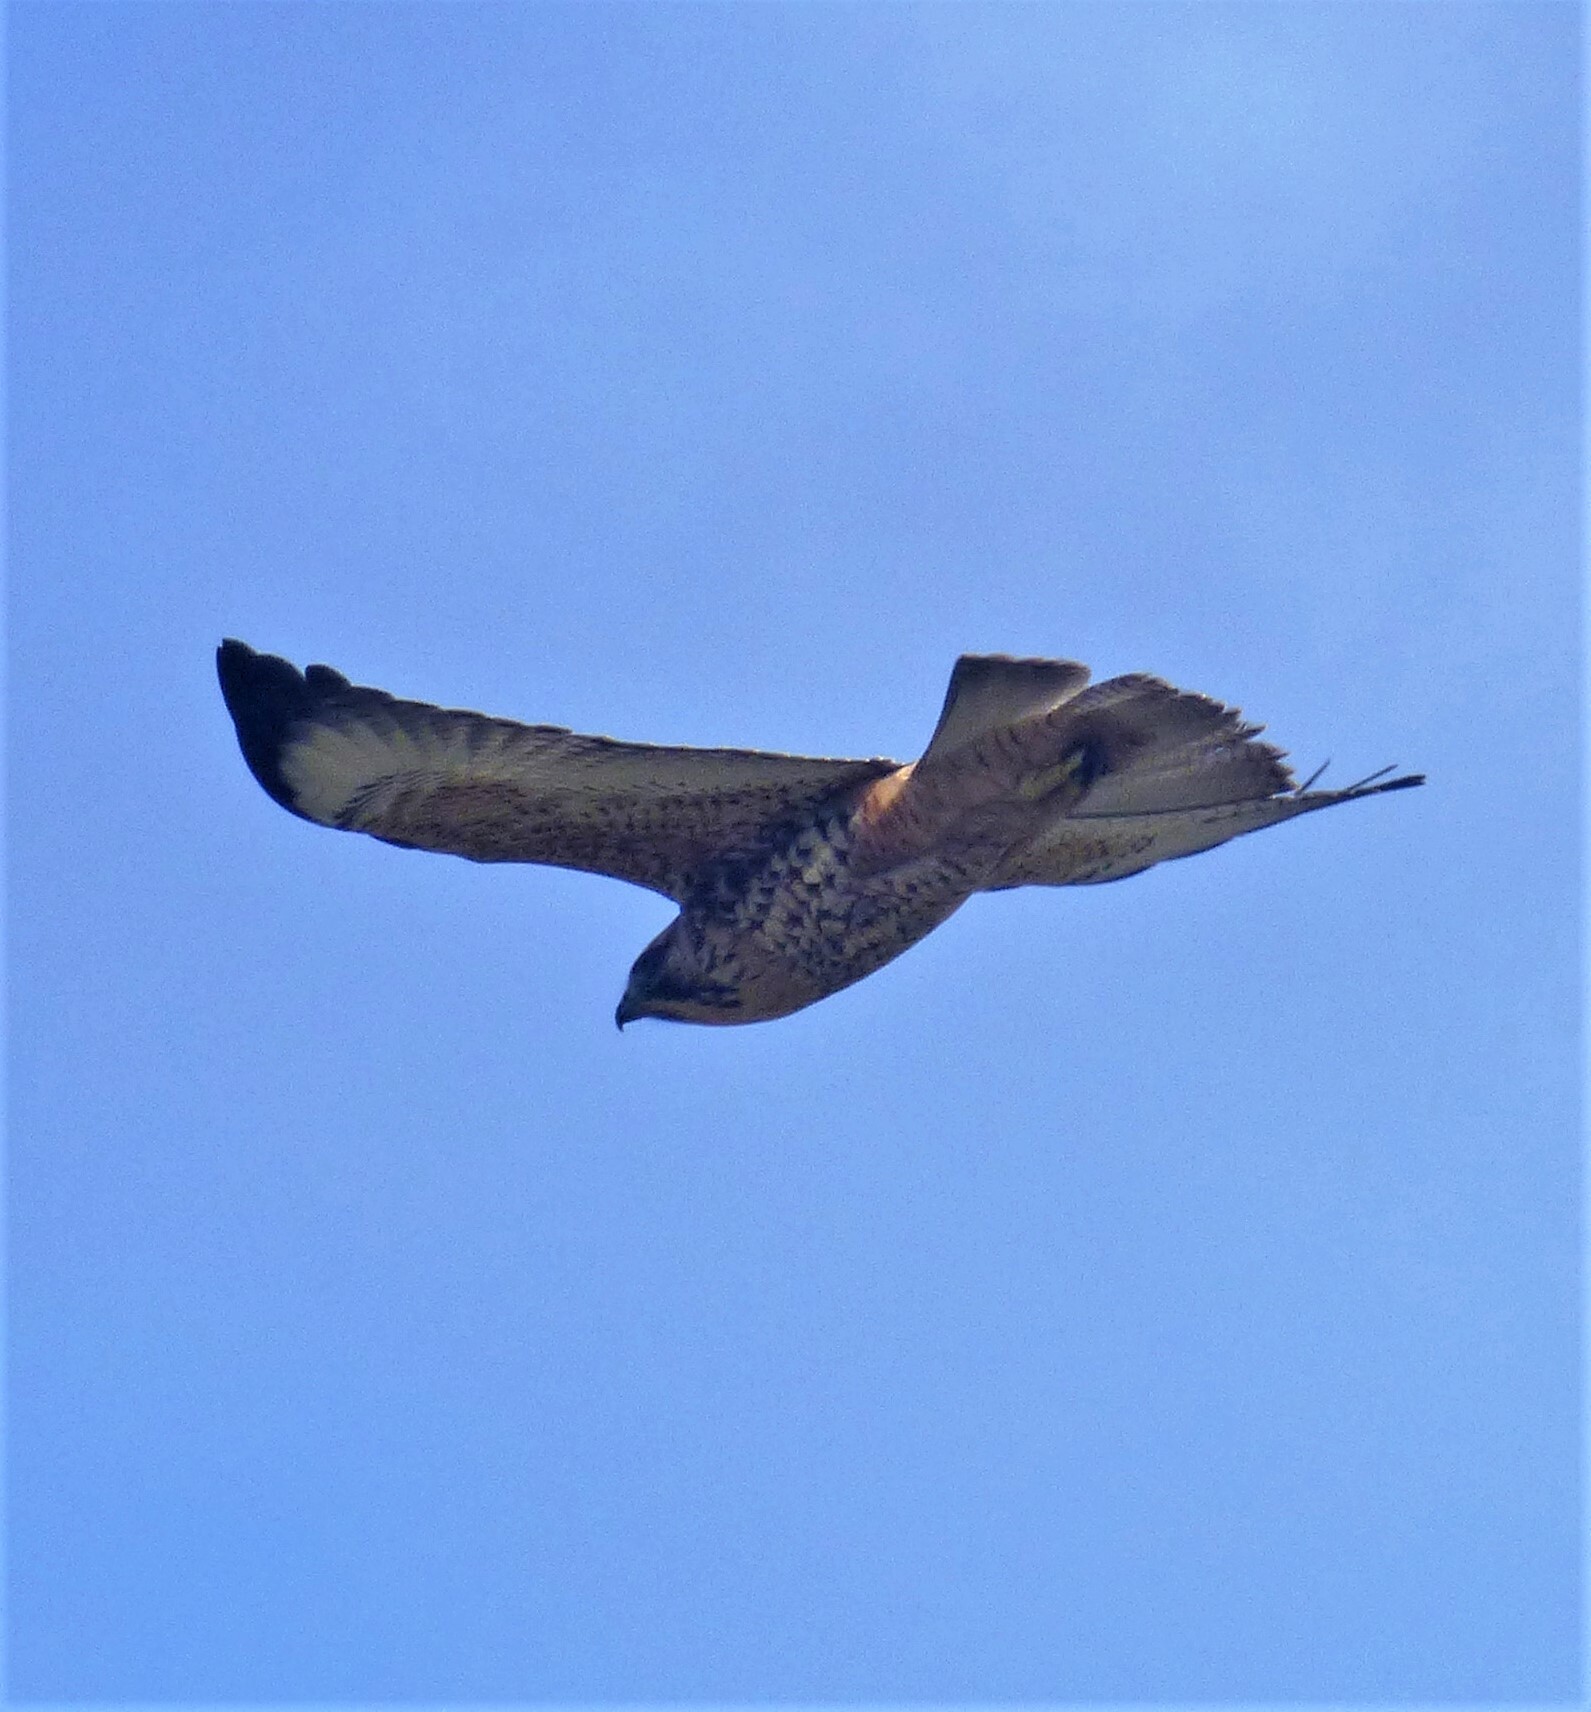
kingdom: Animalia
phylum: Chordata
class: Aves
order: Accipitriformes
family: Accipitridae
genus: Buteo
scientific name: Buteo polyosoma
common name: Variable hawk
